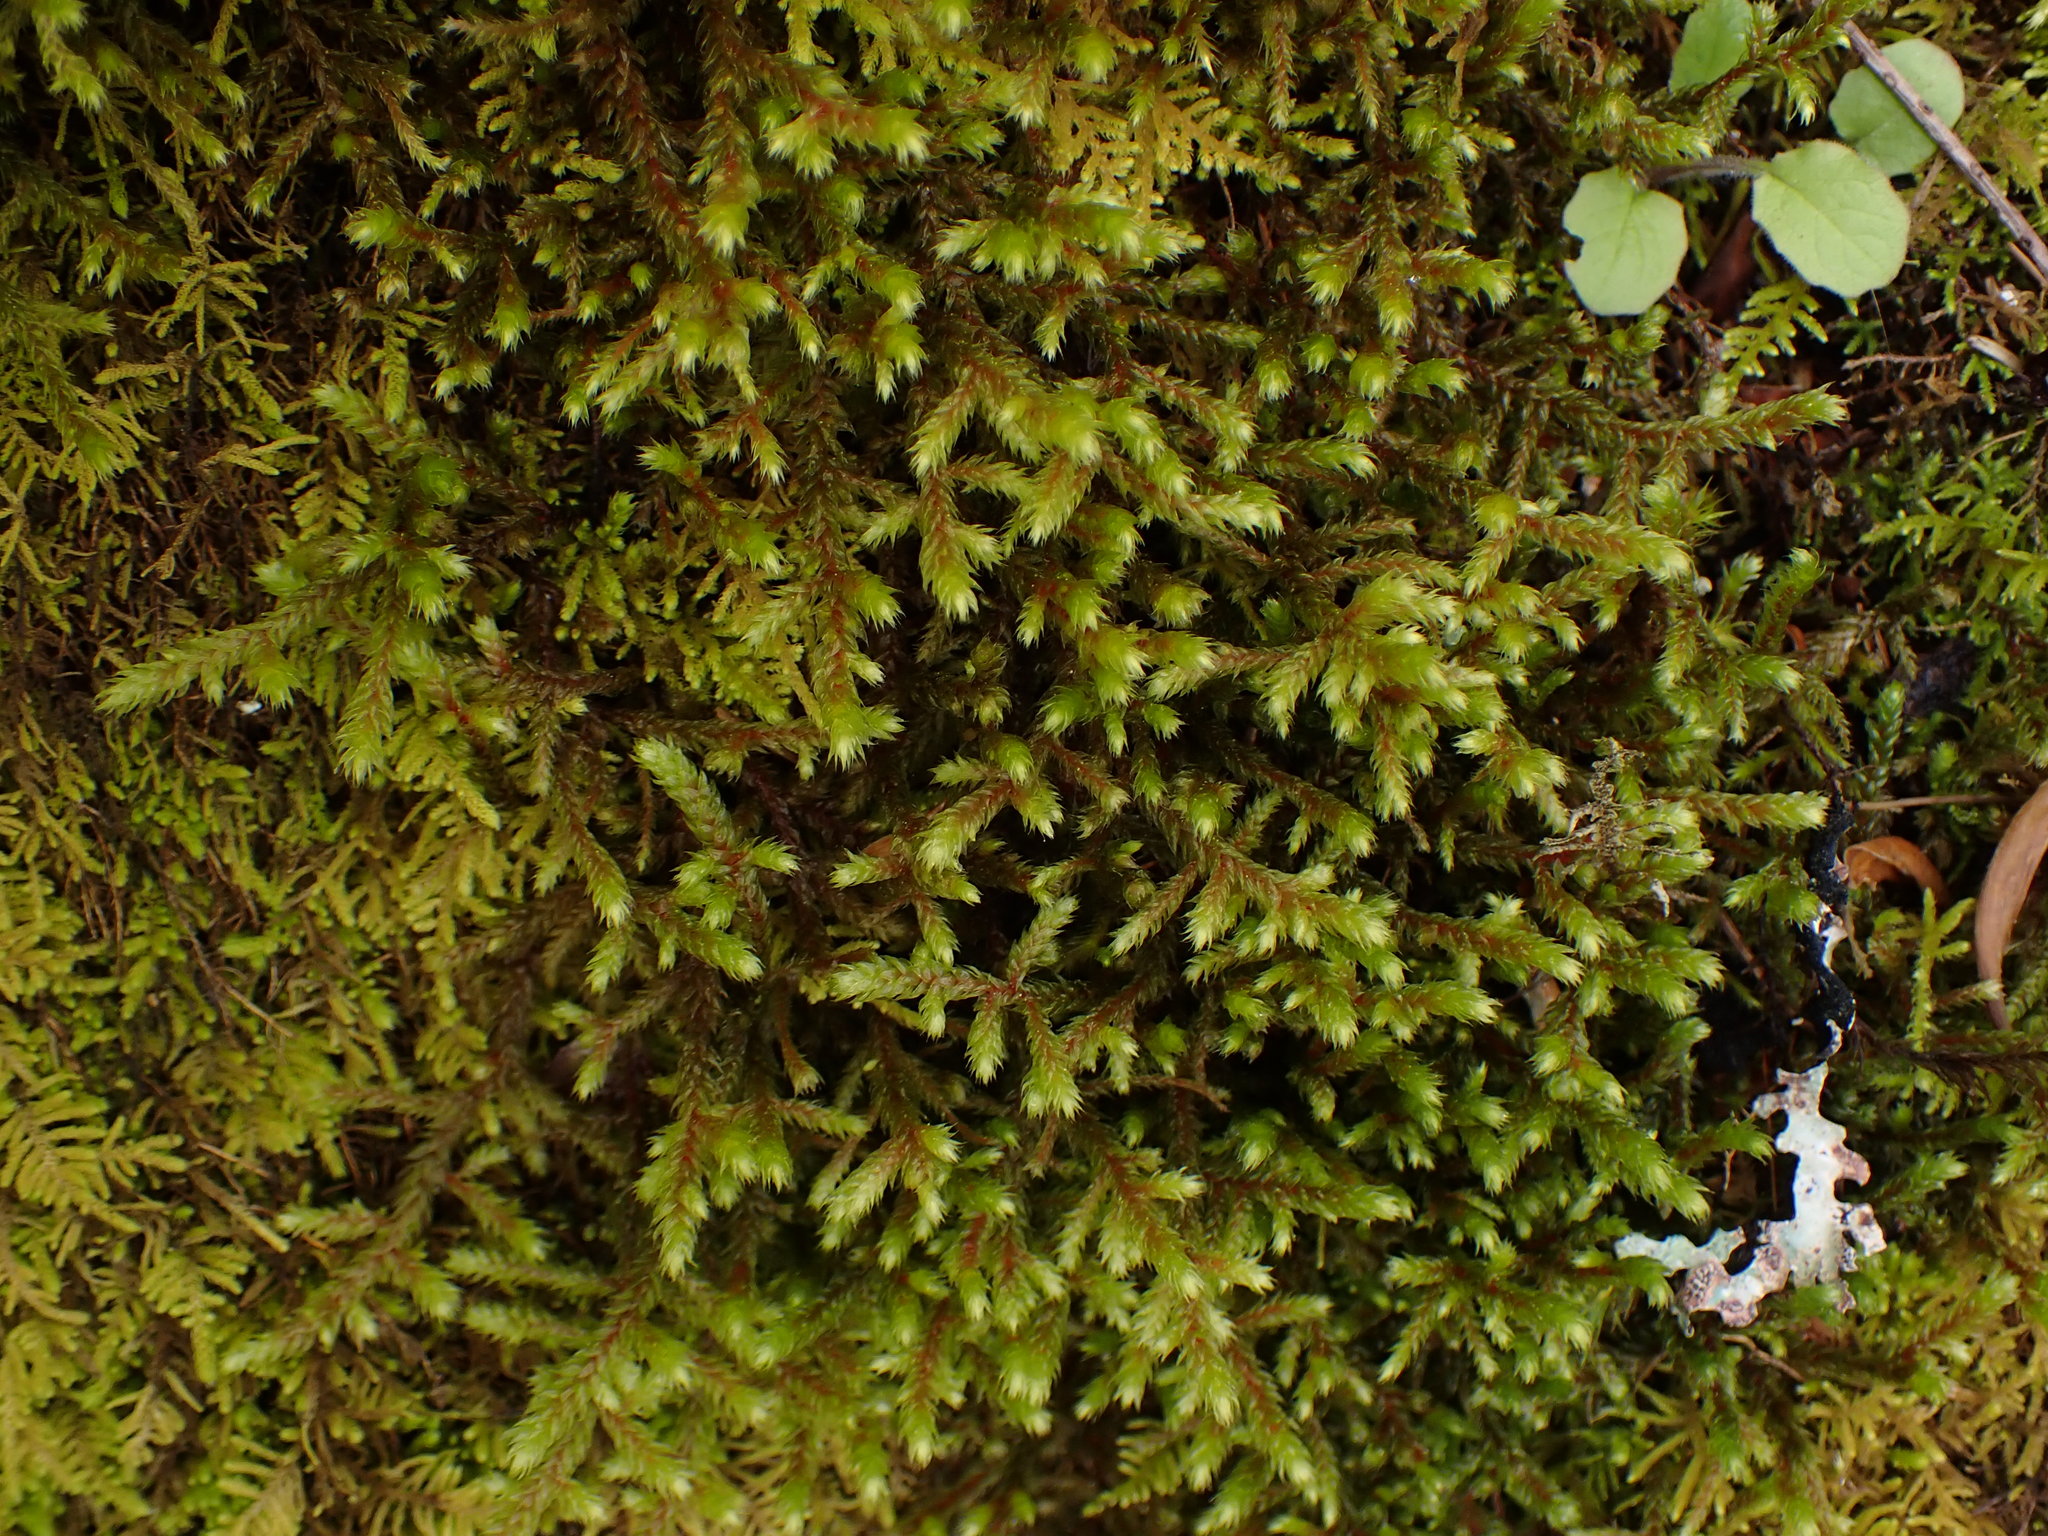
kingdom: Plantae
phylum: Bryophyta
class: Bryopsida
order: Hypnales
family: Antitrichiaceae
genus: Antitrichia
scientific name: Antitrichia curtipendula
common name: Pendulous wing-moss
